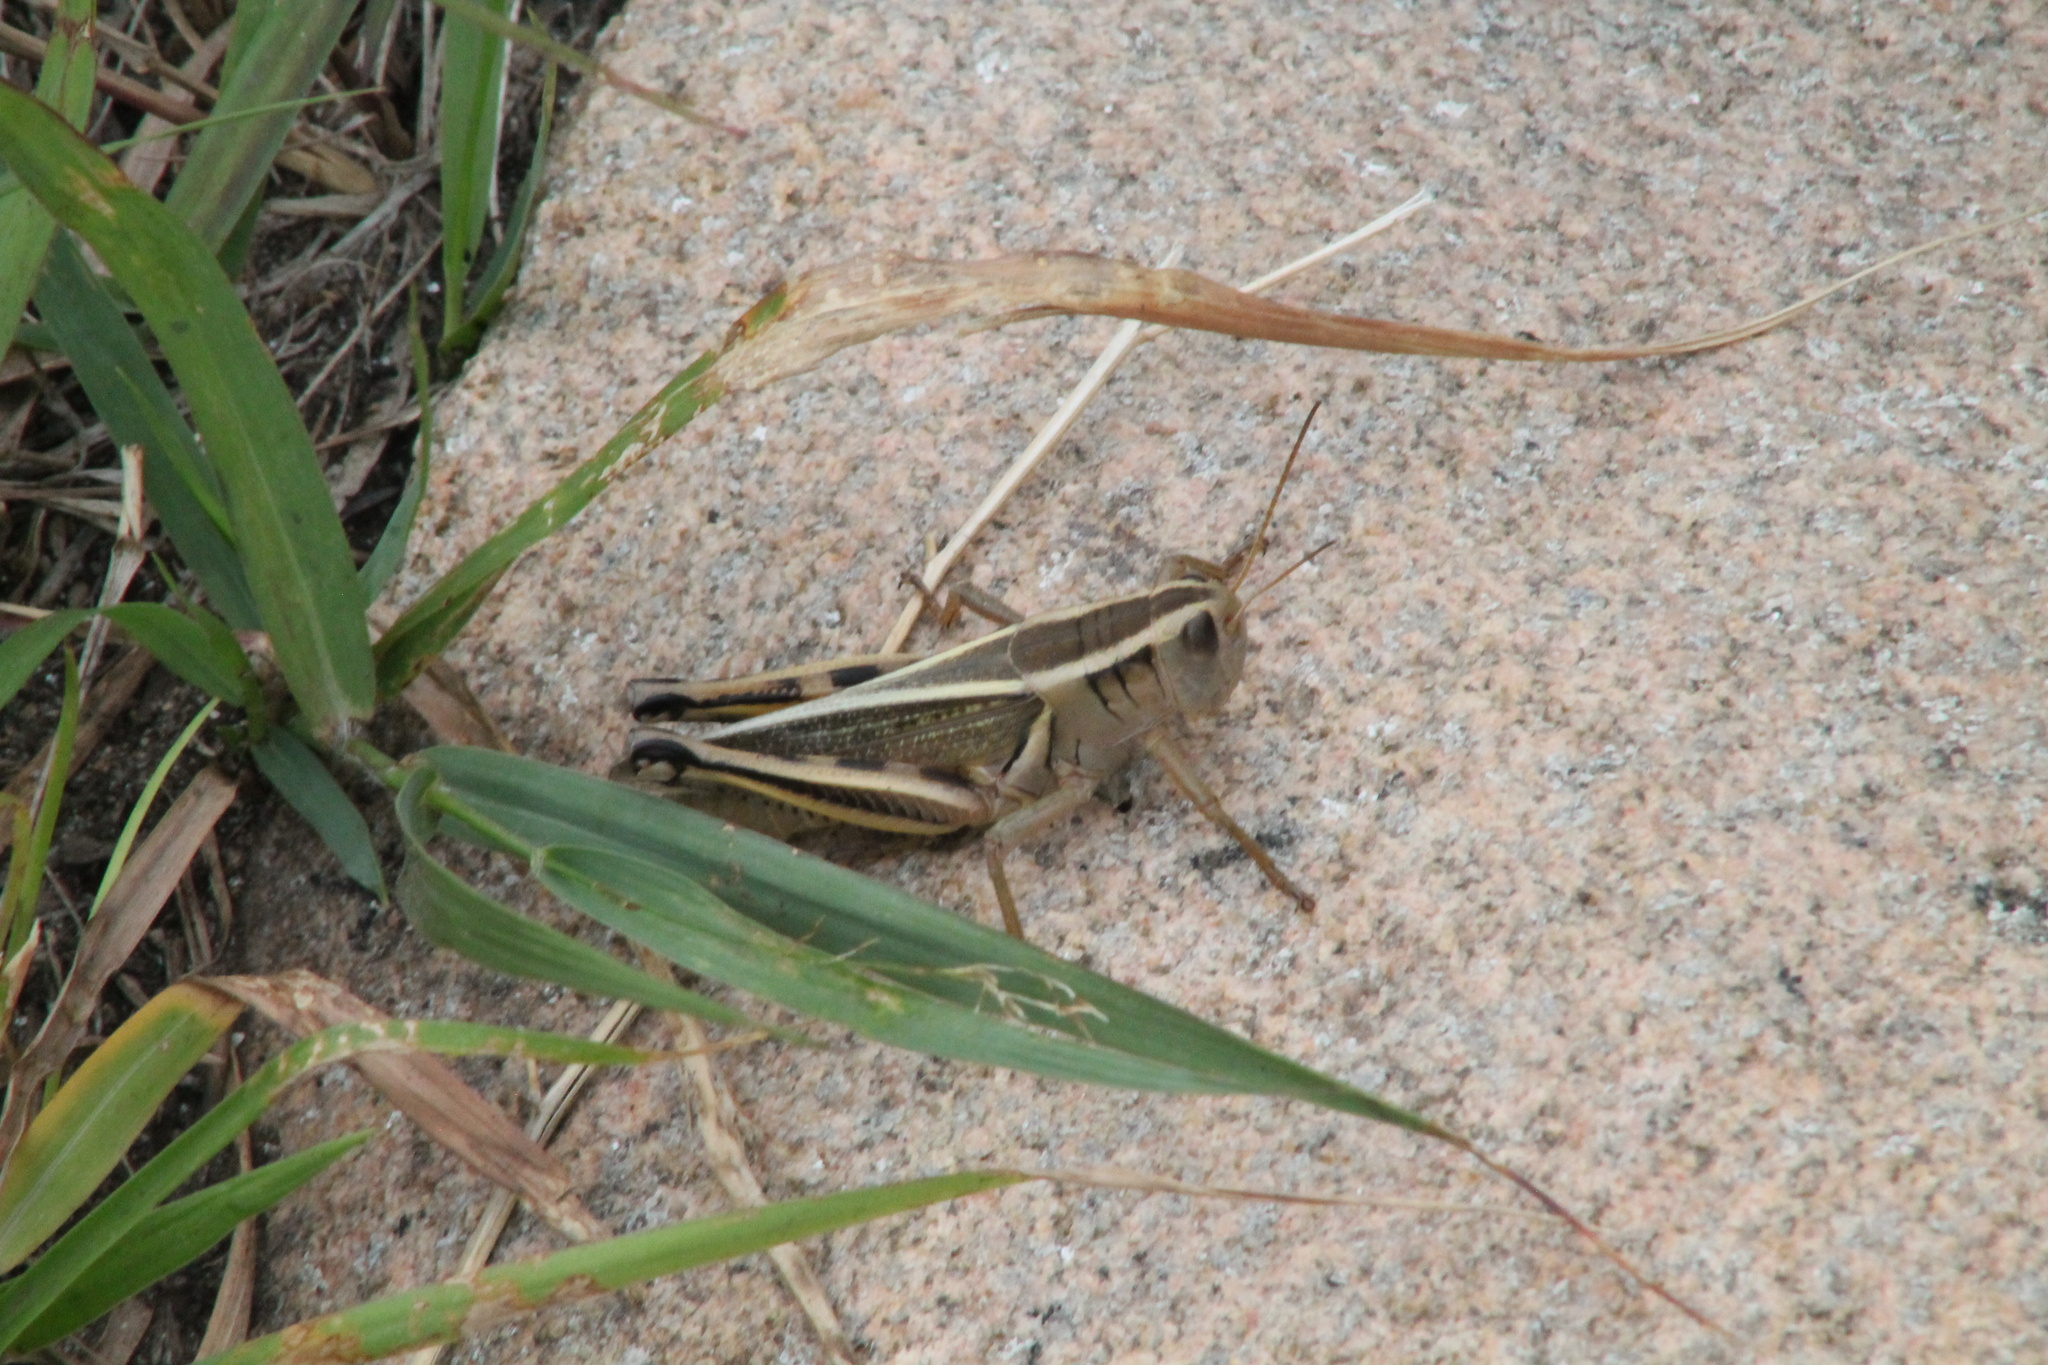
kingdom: Animalia
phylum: Arthropoda
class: Insecta
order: Orthoptera
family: Acrididae
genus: Melanoplus
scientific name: Melanoplus bivittatus
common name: Two-striped grasshopper
